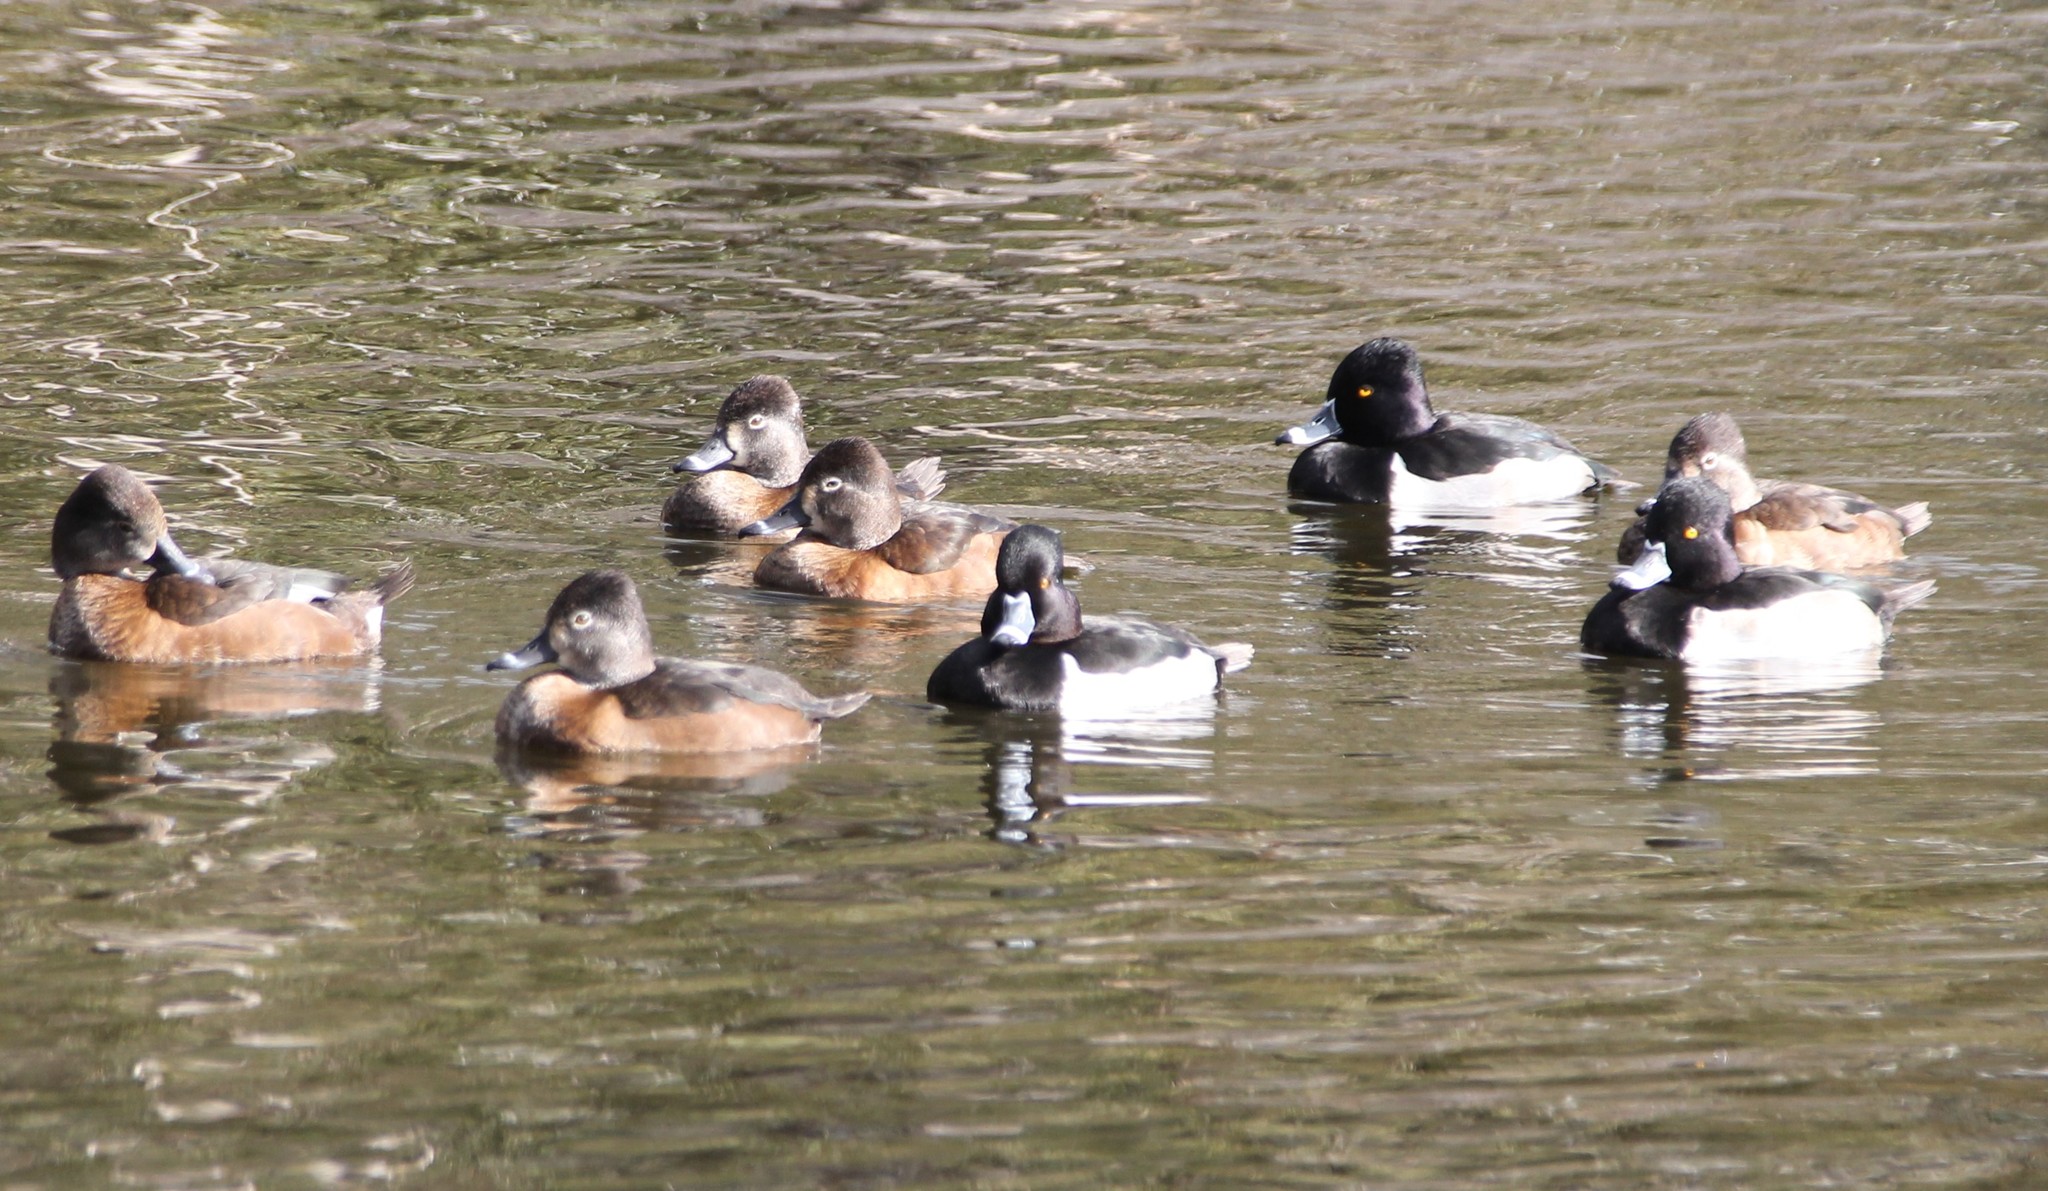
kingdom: Animalia
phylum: Chordata
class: Aves
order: Anseriformes
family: Anatidae
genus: Aythya
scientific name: Aythya collaris
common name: Ring-necked duck
